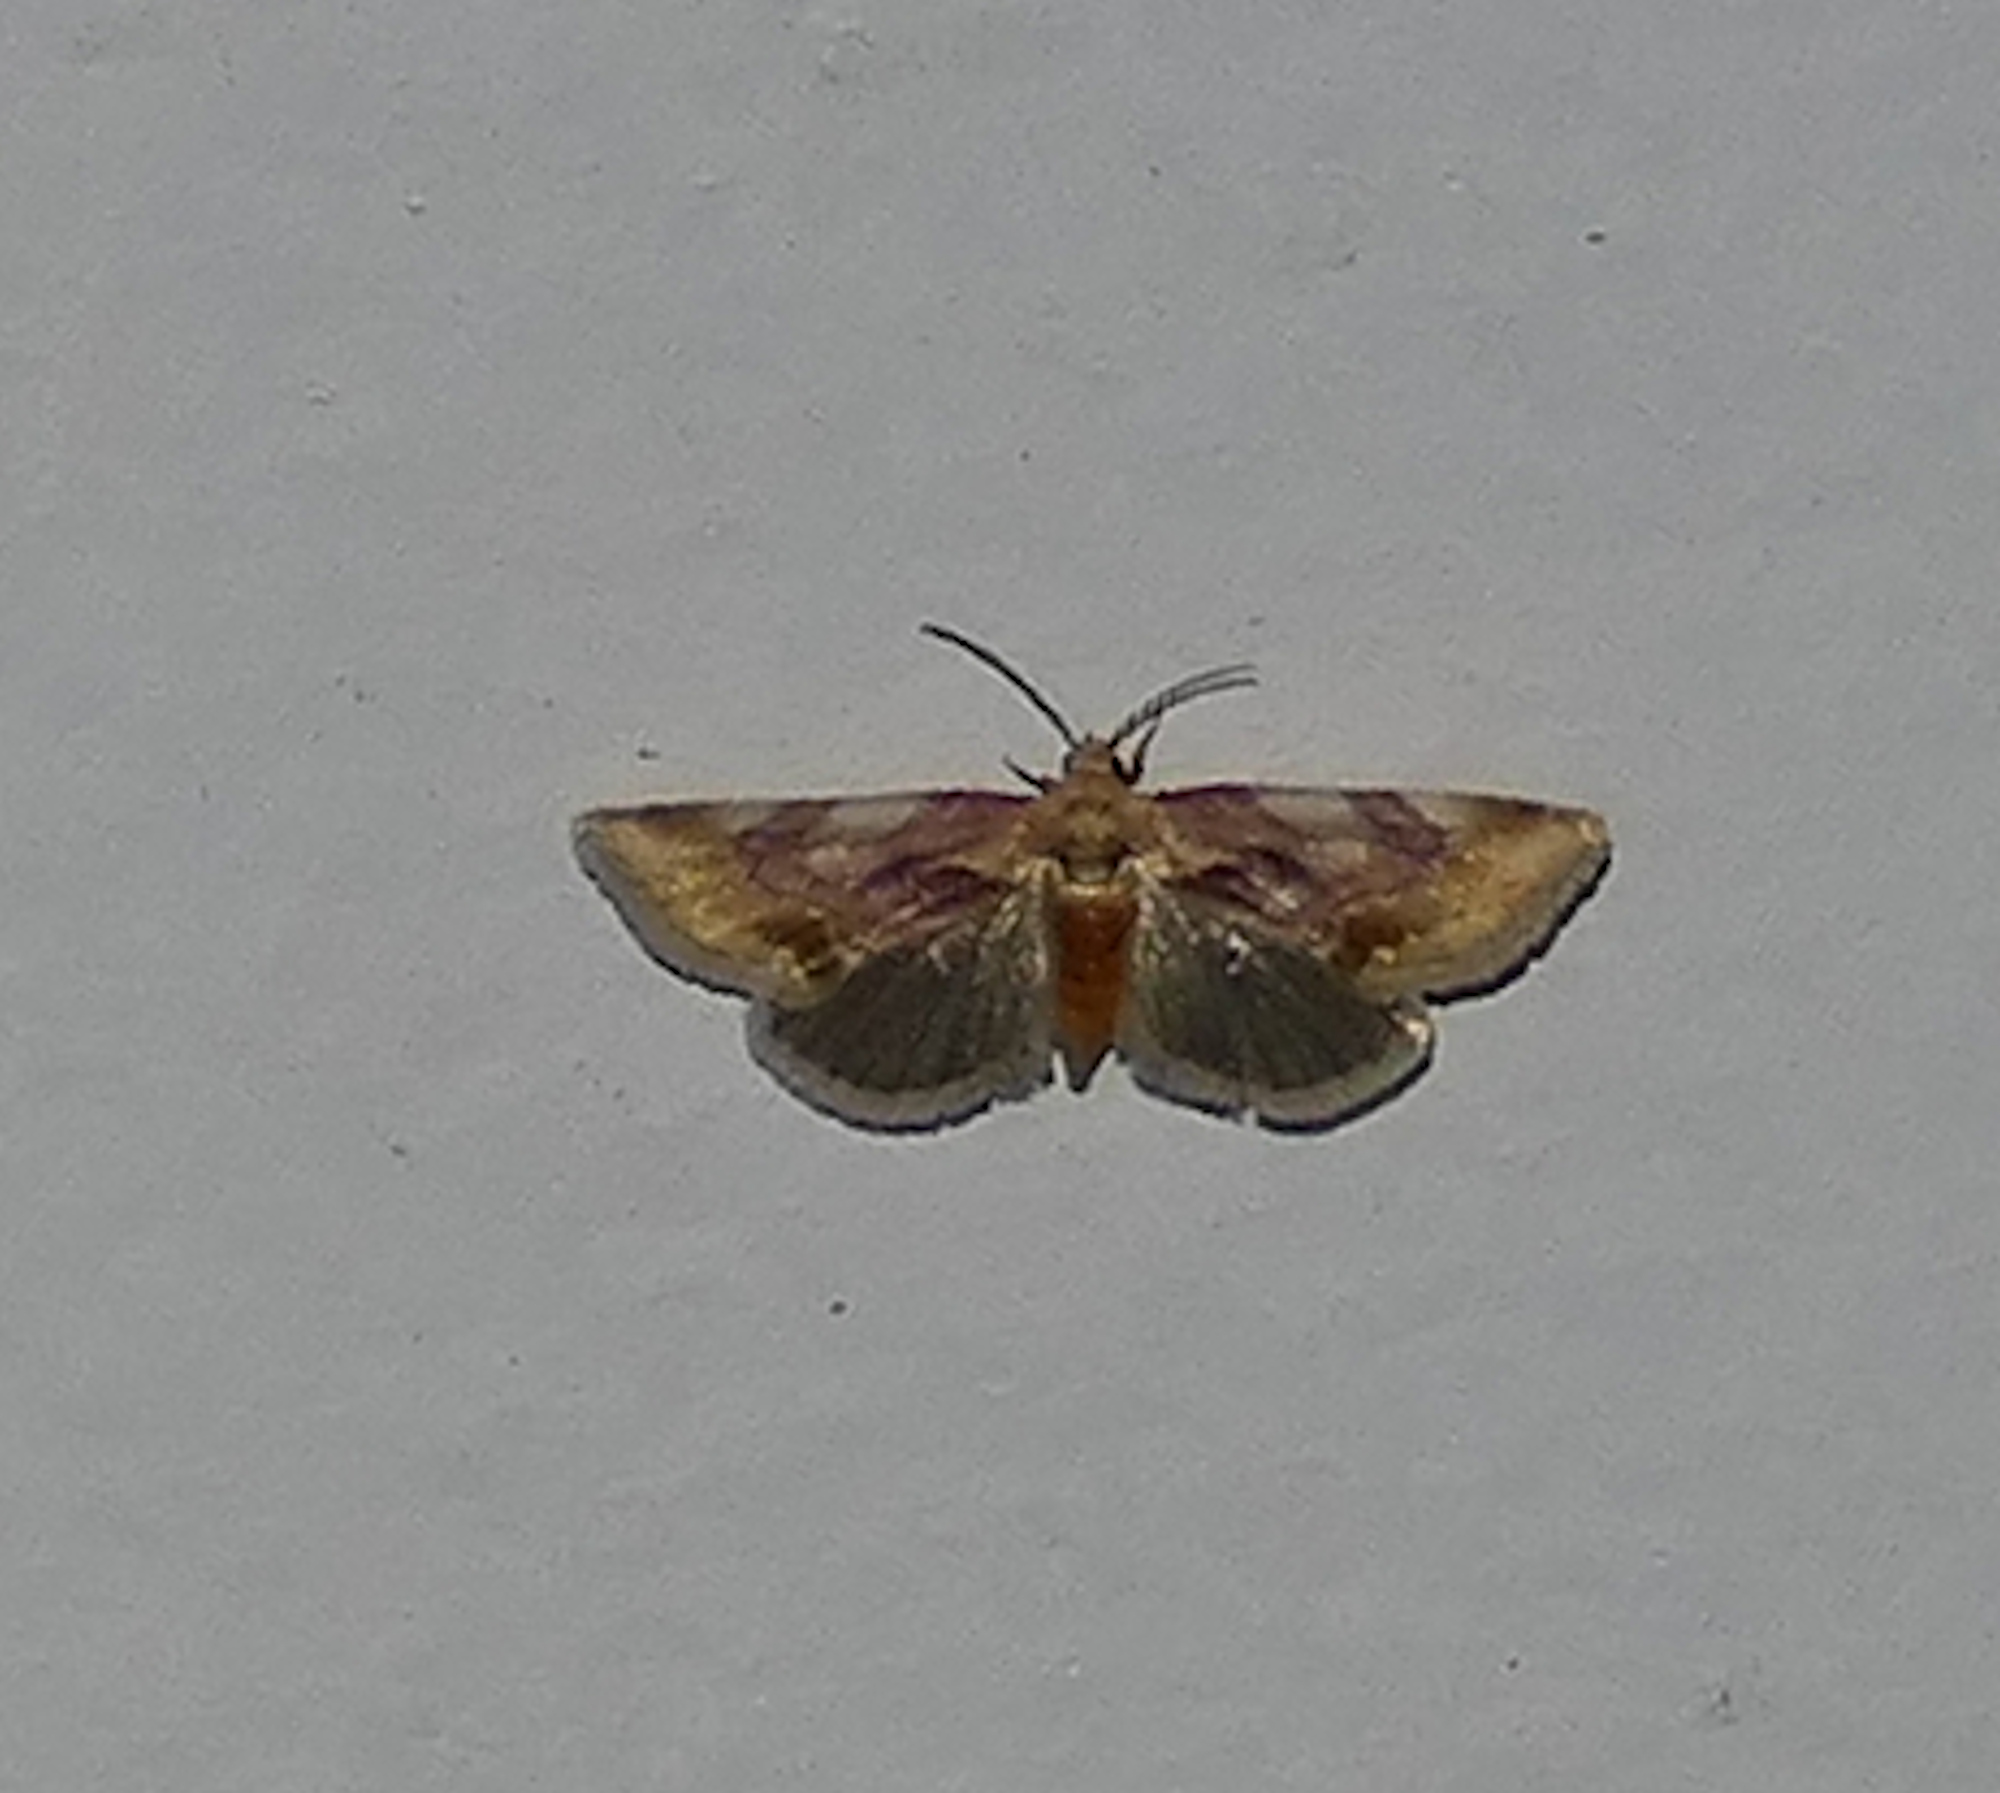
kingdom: Animalia
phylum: Arthropoda
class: Insecta
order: Lepidoptera
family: Noctuidae
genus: Chamaeclea
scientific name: Chamaeclea pernana
